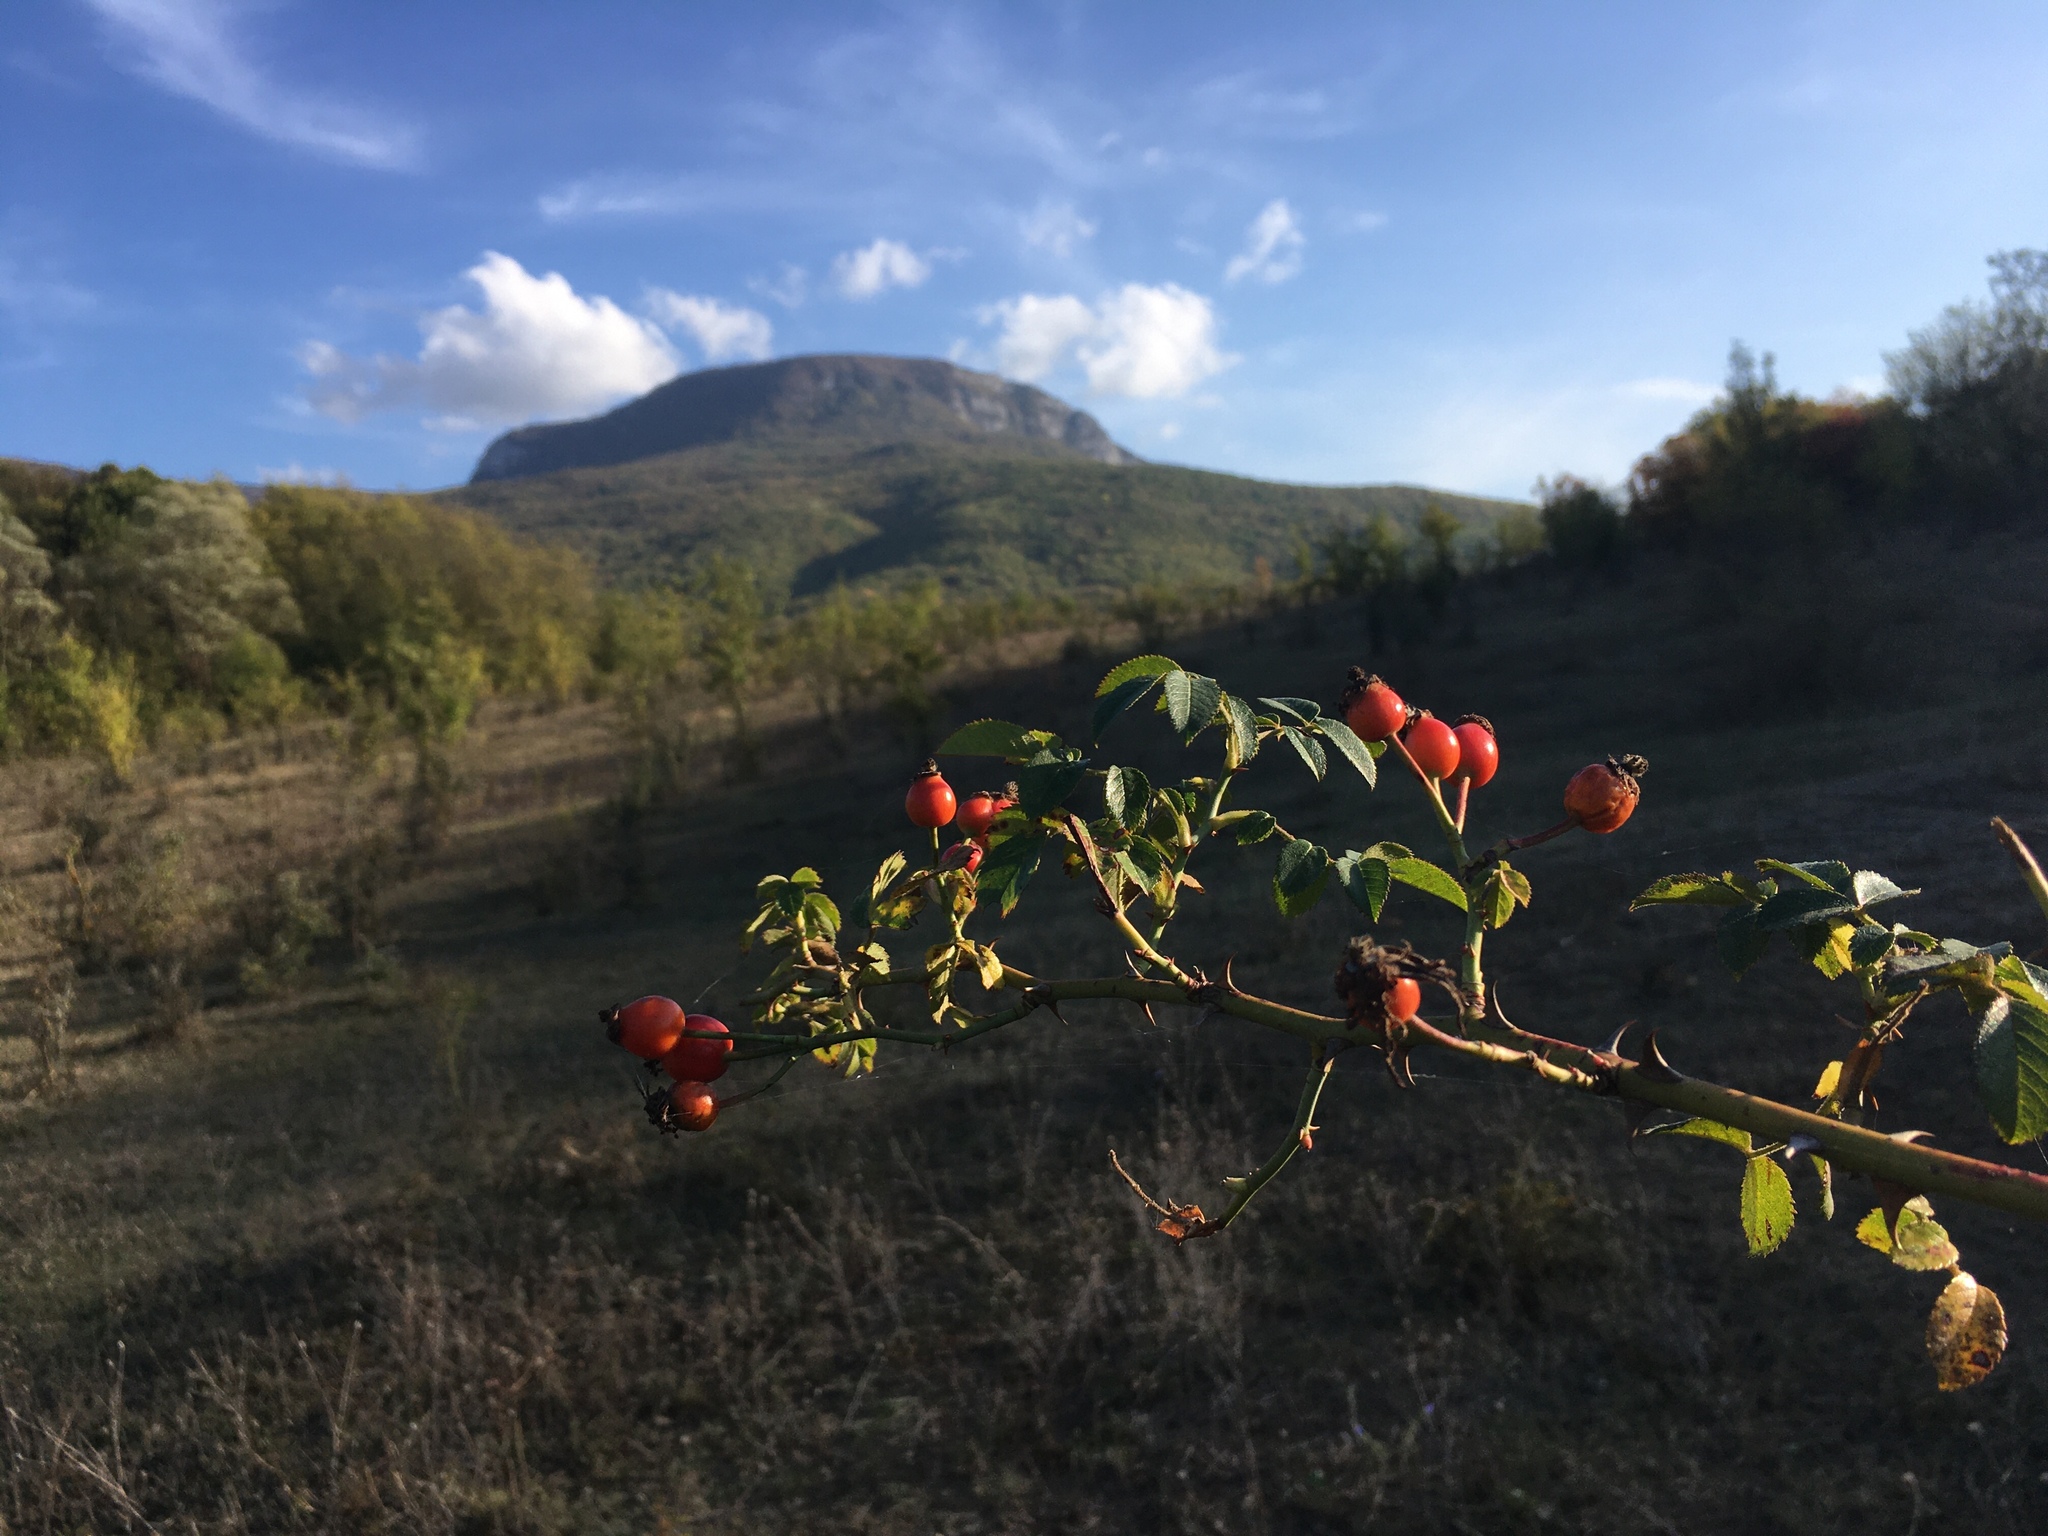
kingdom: Plantae
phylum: Tracheophyta
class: Magnoliopsida
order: Rosales
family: Rosaceae
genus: Rosa
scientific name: Rosa
